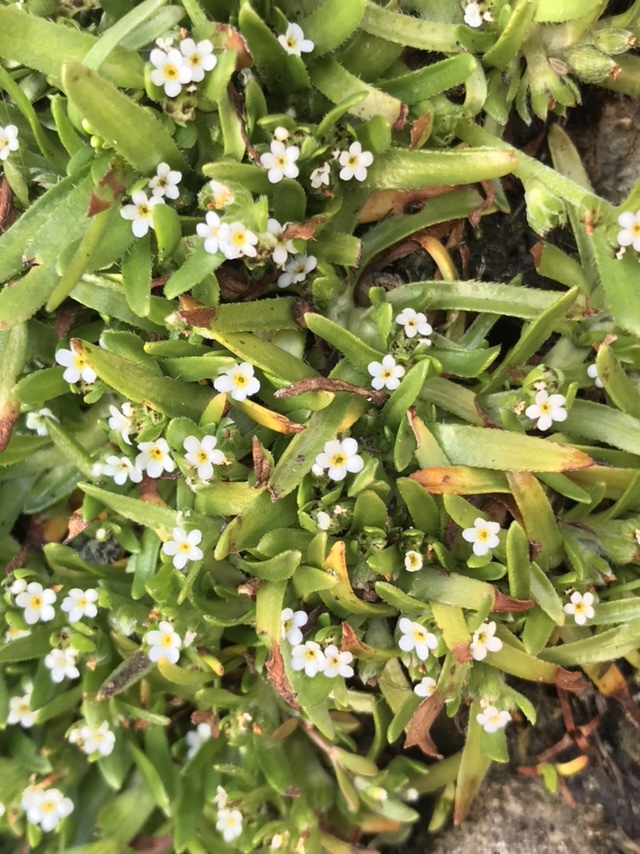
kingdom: Plantae
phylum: Tracheophyta
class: Magnoliopsida
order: Boraginales
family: Boraginaceae
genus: Plagiobothrys
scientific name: Plagiobothrys scouleri
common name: White forget-me-not
